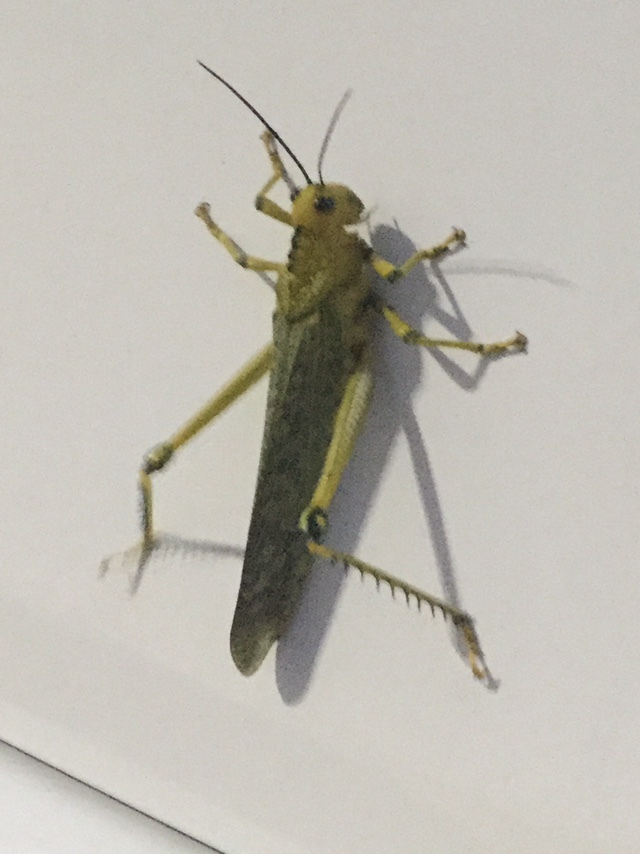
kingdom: Animalia
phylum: Arthropoda
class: Insecta
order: Orthoptera
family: Romaleidae
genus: Tropidacris
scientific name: Tropidacris cristata
